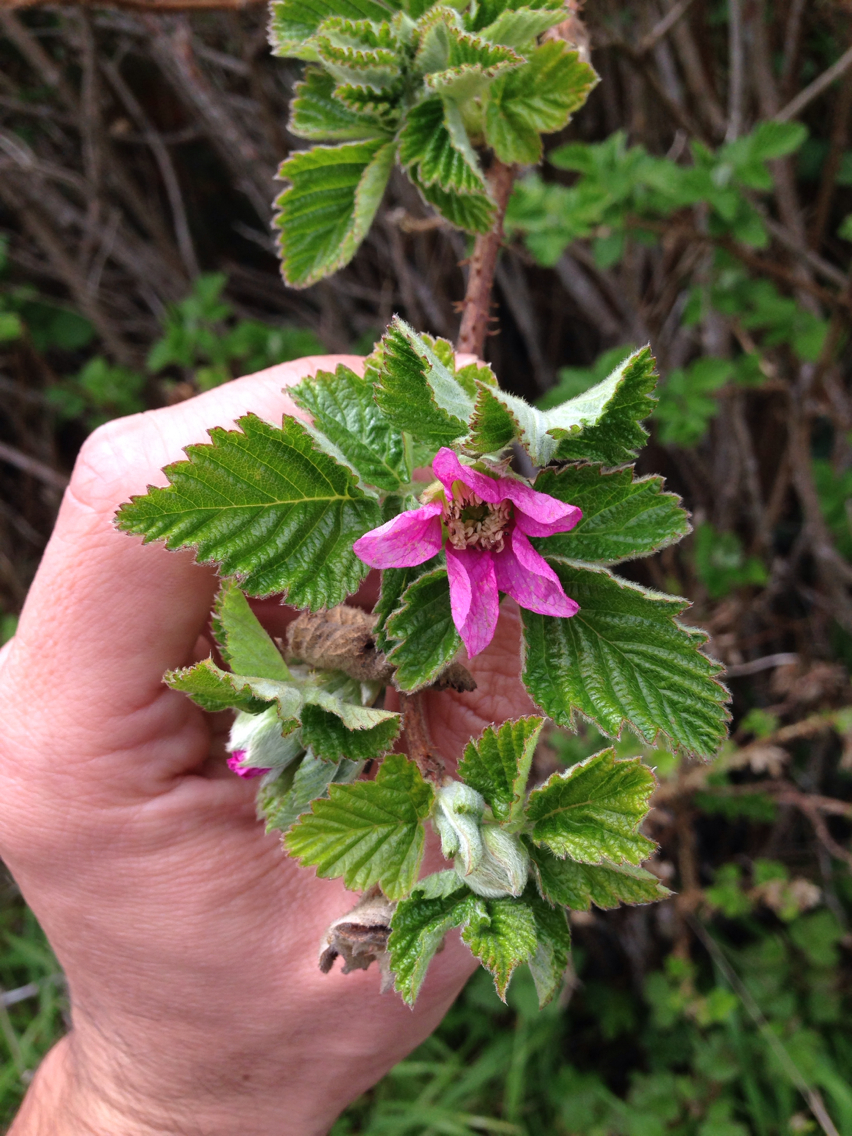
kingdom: Plantae
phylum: Tracheophyta
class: Magnoliopsida
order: Rosales
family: Rosaceae
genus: Rubus
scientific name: Rubus spectabilis
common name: Salmonberry
